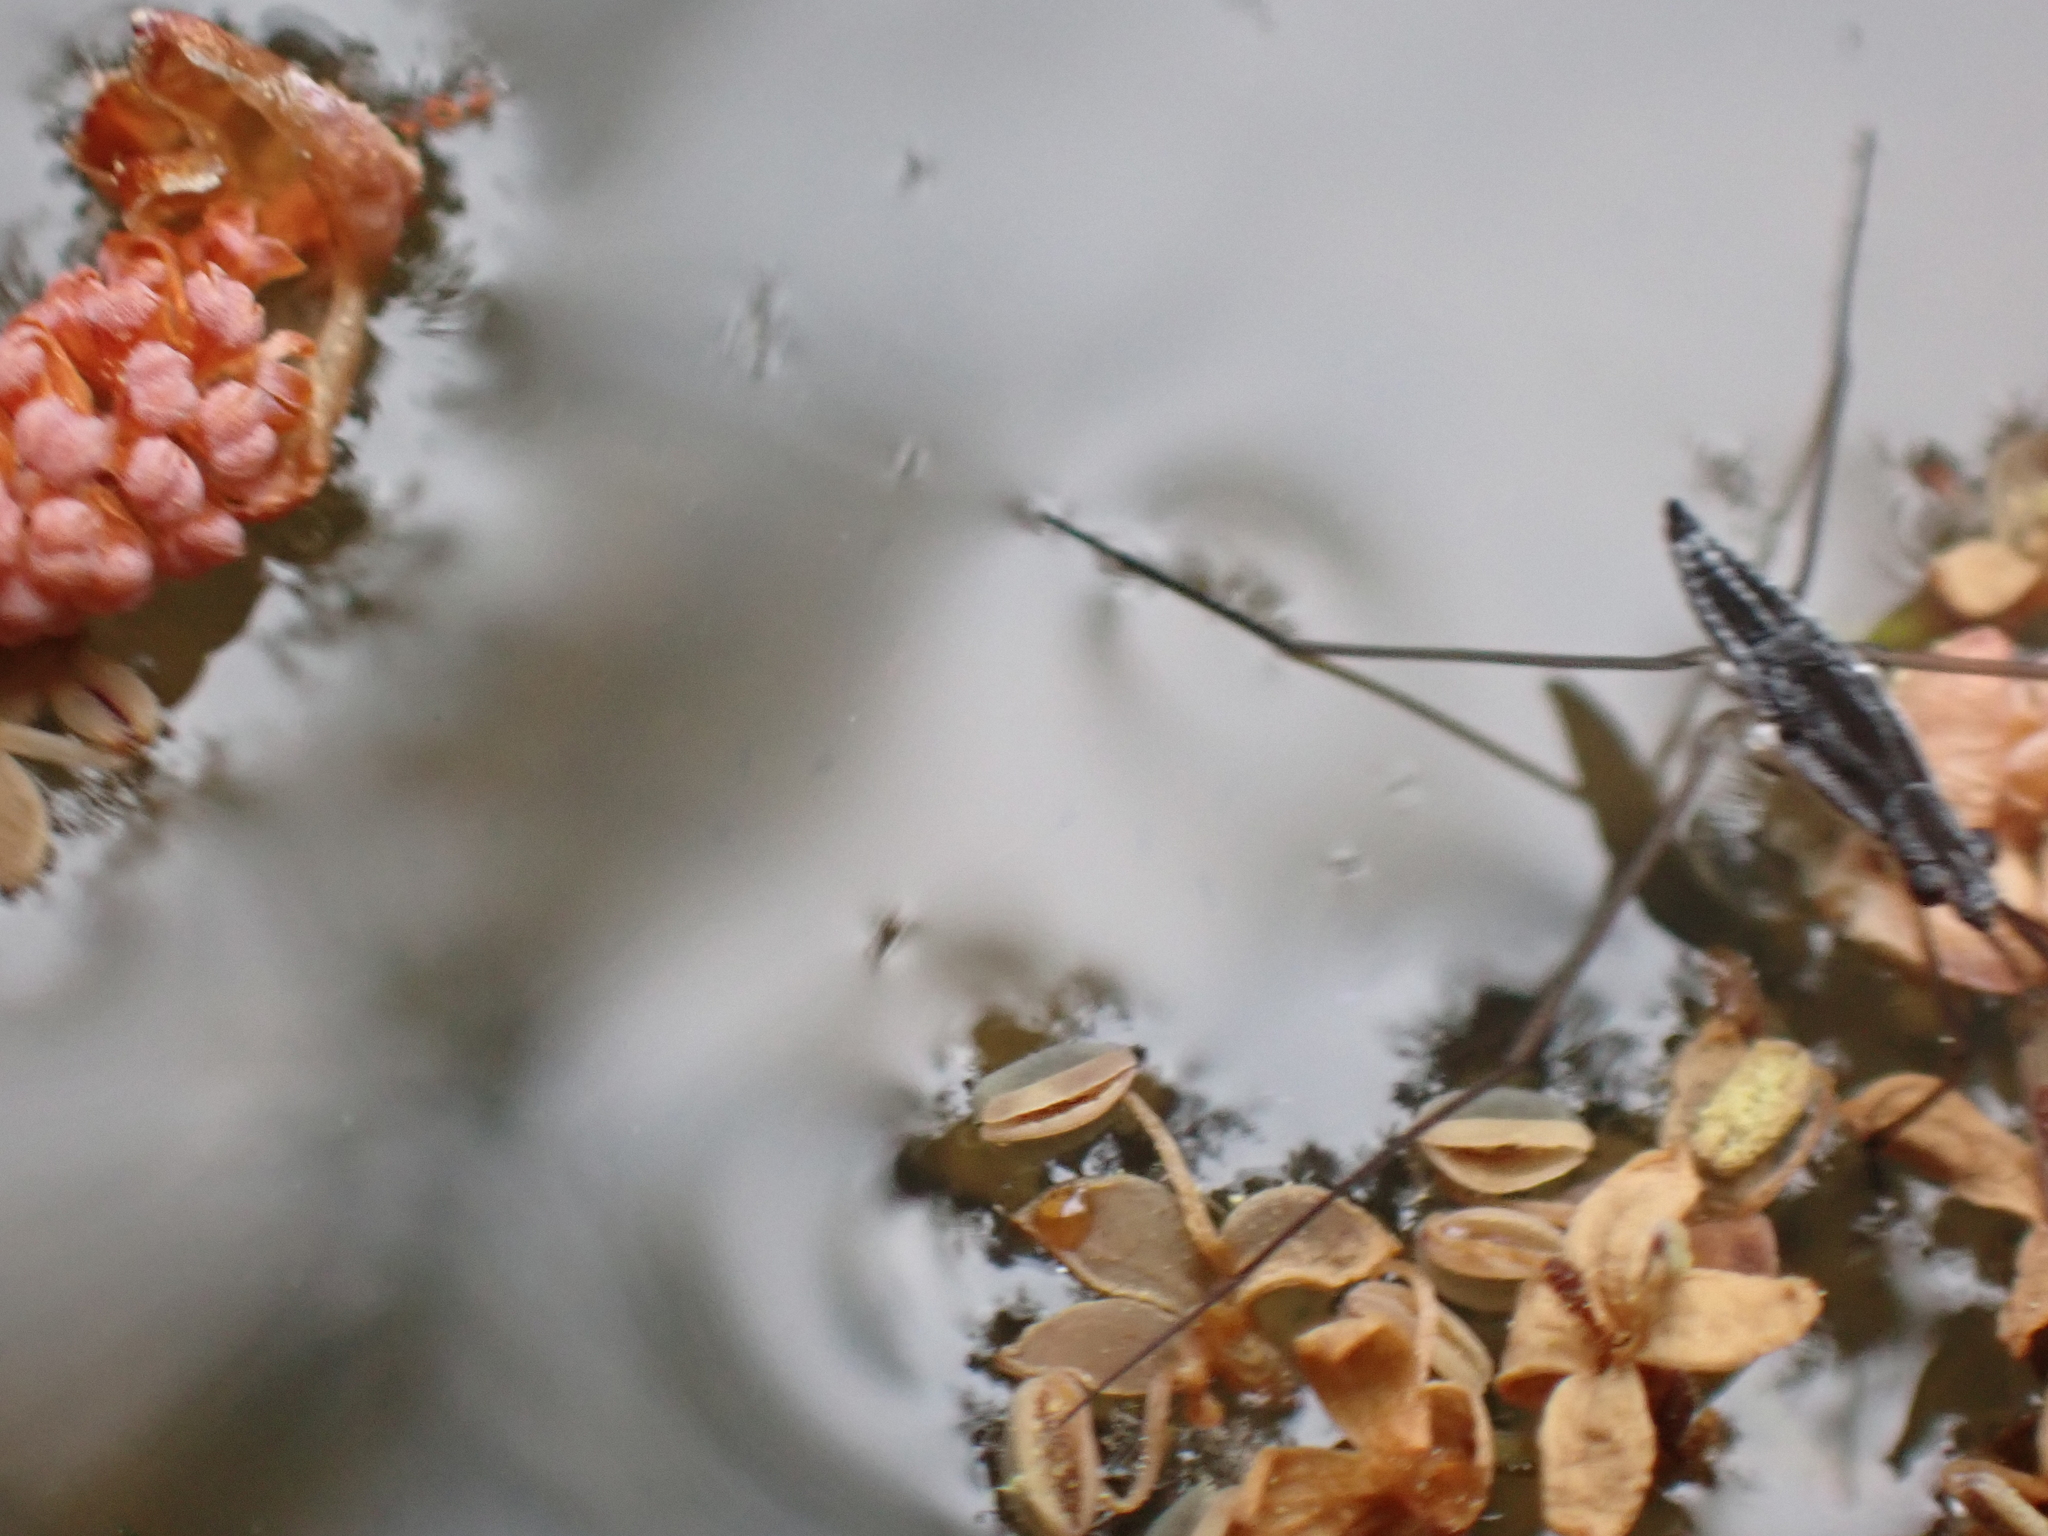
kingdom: Animalia
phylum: Arthropoda
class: Insecta
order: Hemiptera
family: Gerridae
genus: Limnoporus
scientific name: Limnoporus canaliculatus
